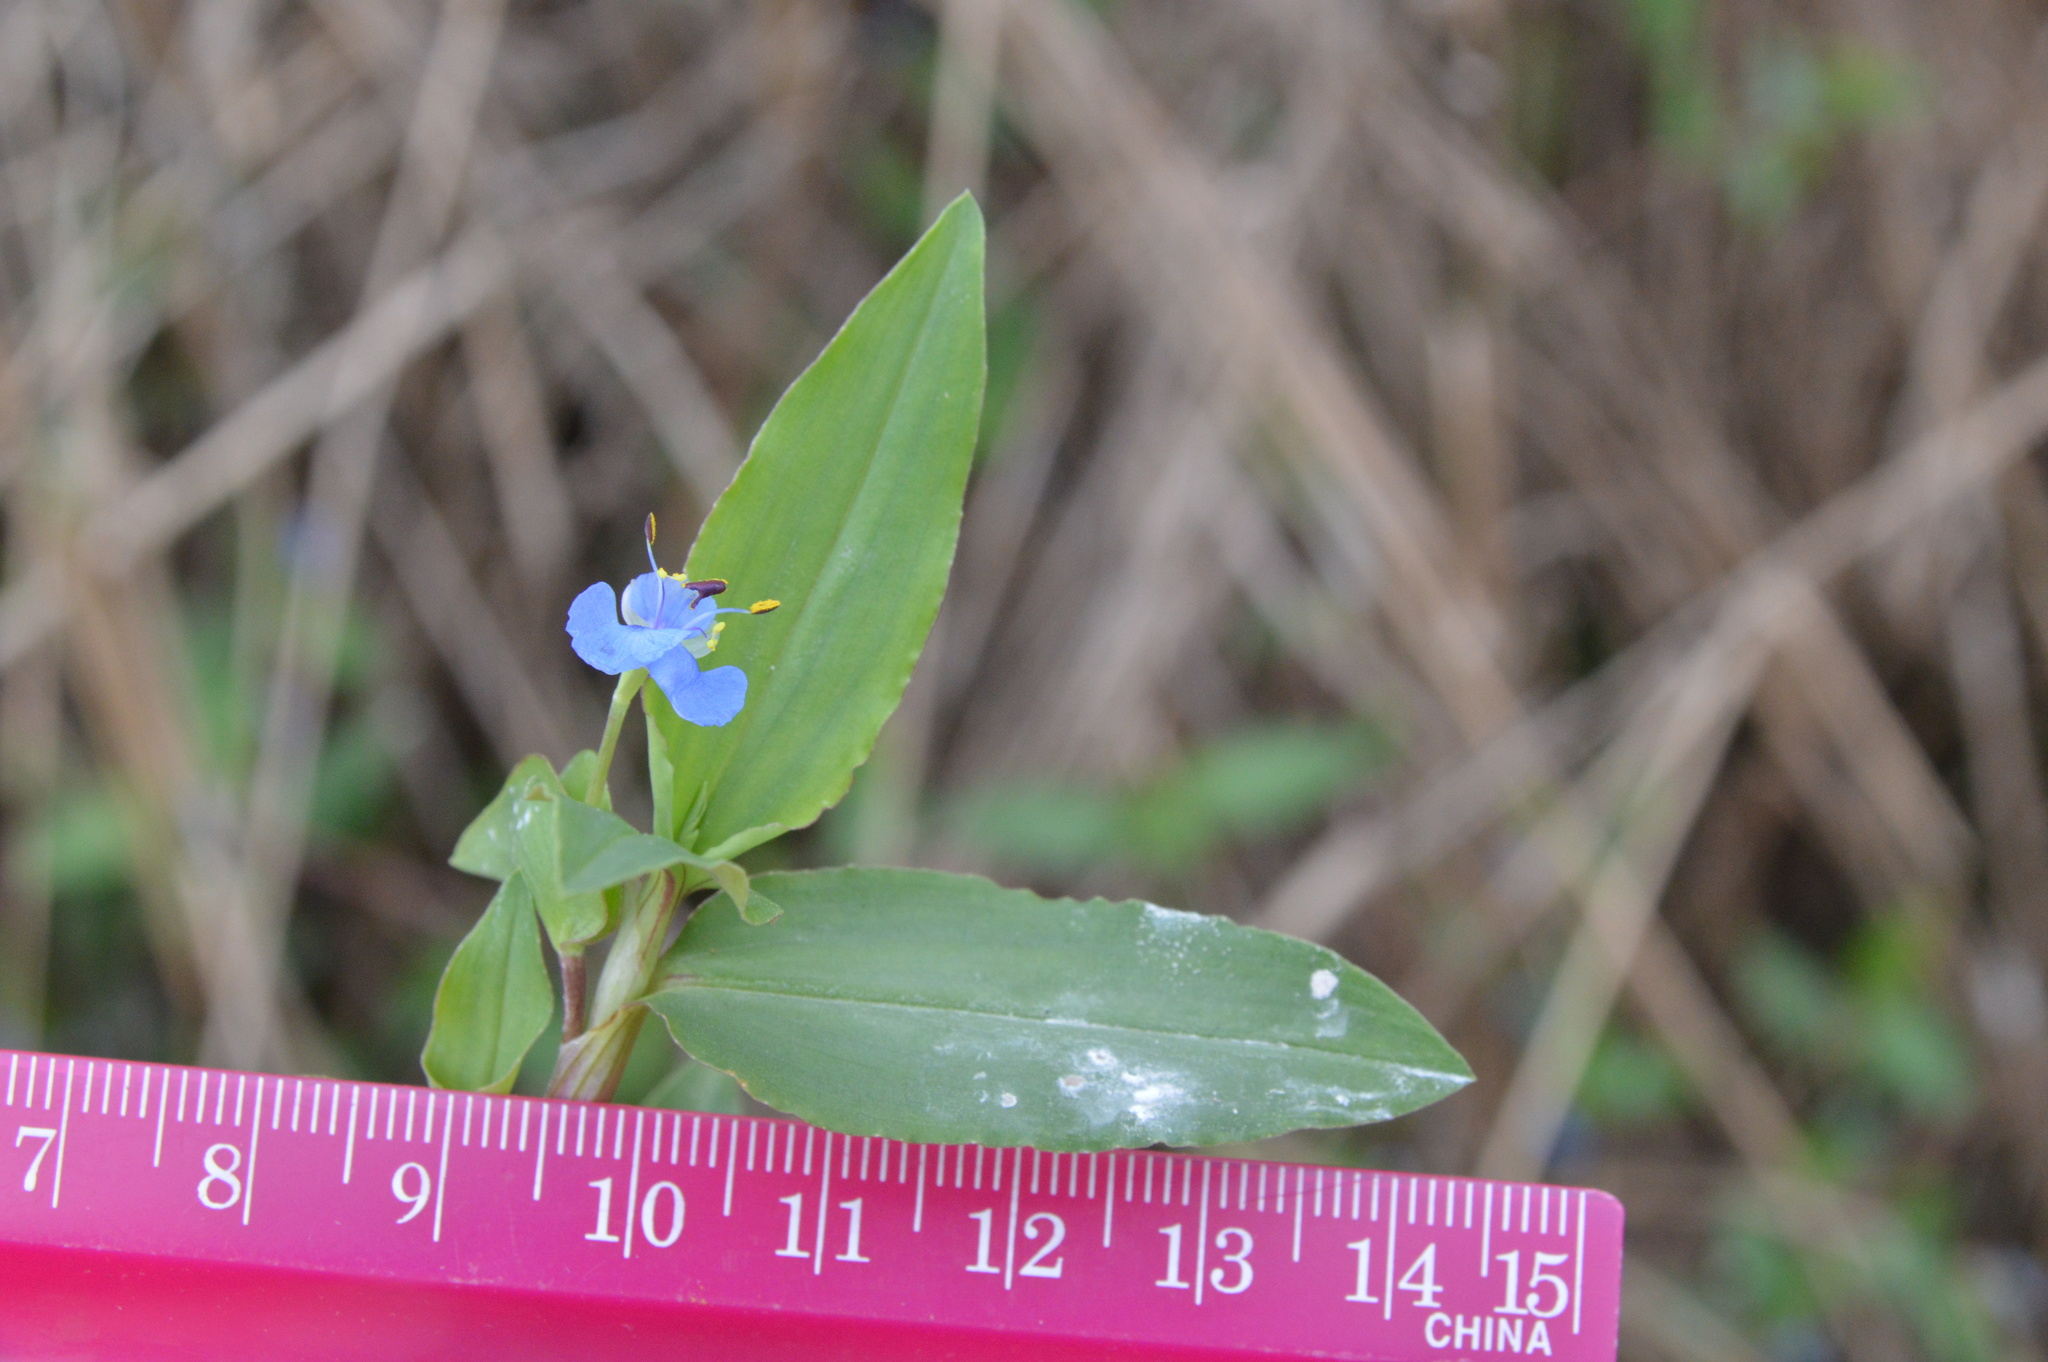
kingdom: Plantae
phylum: Tracheophyta
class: Liliopsida
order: Commelinales
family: Commelinaceae
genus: Commelina
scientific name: Commelina diffusa
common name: Climbing dayflower
